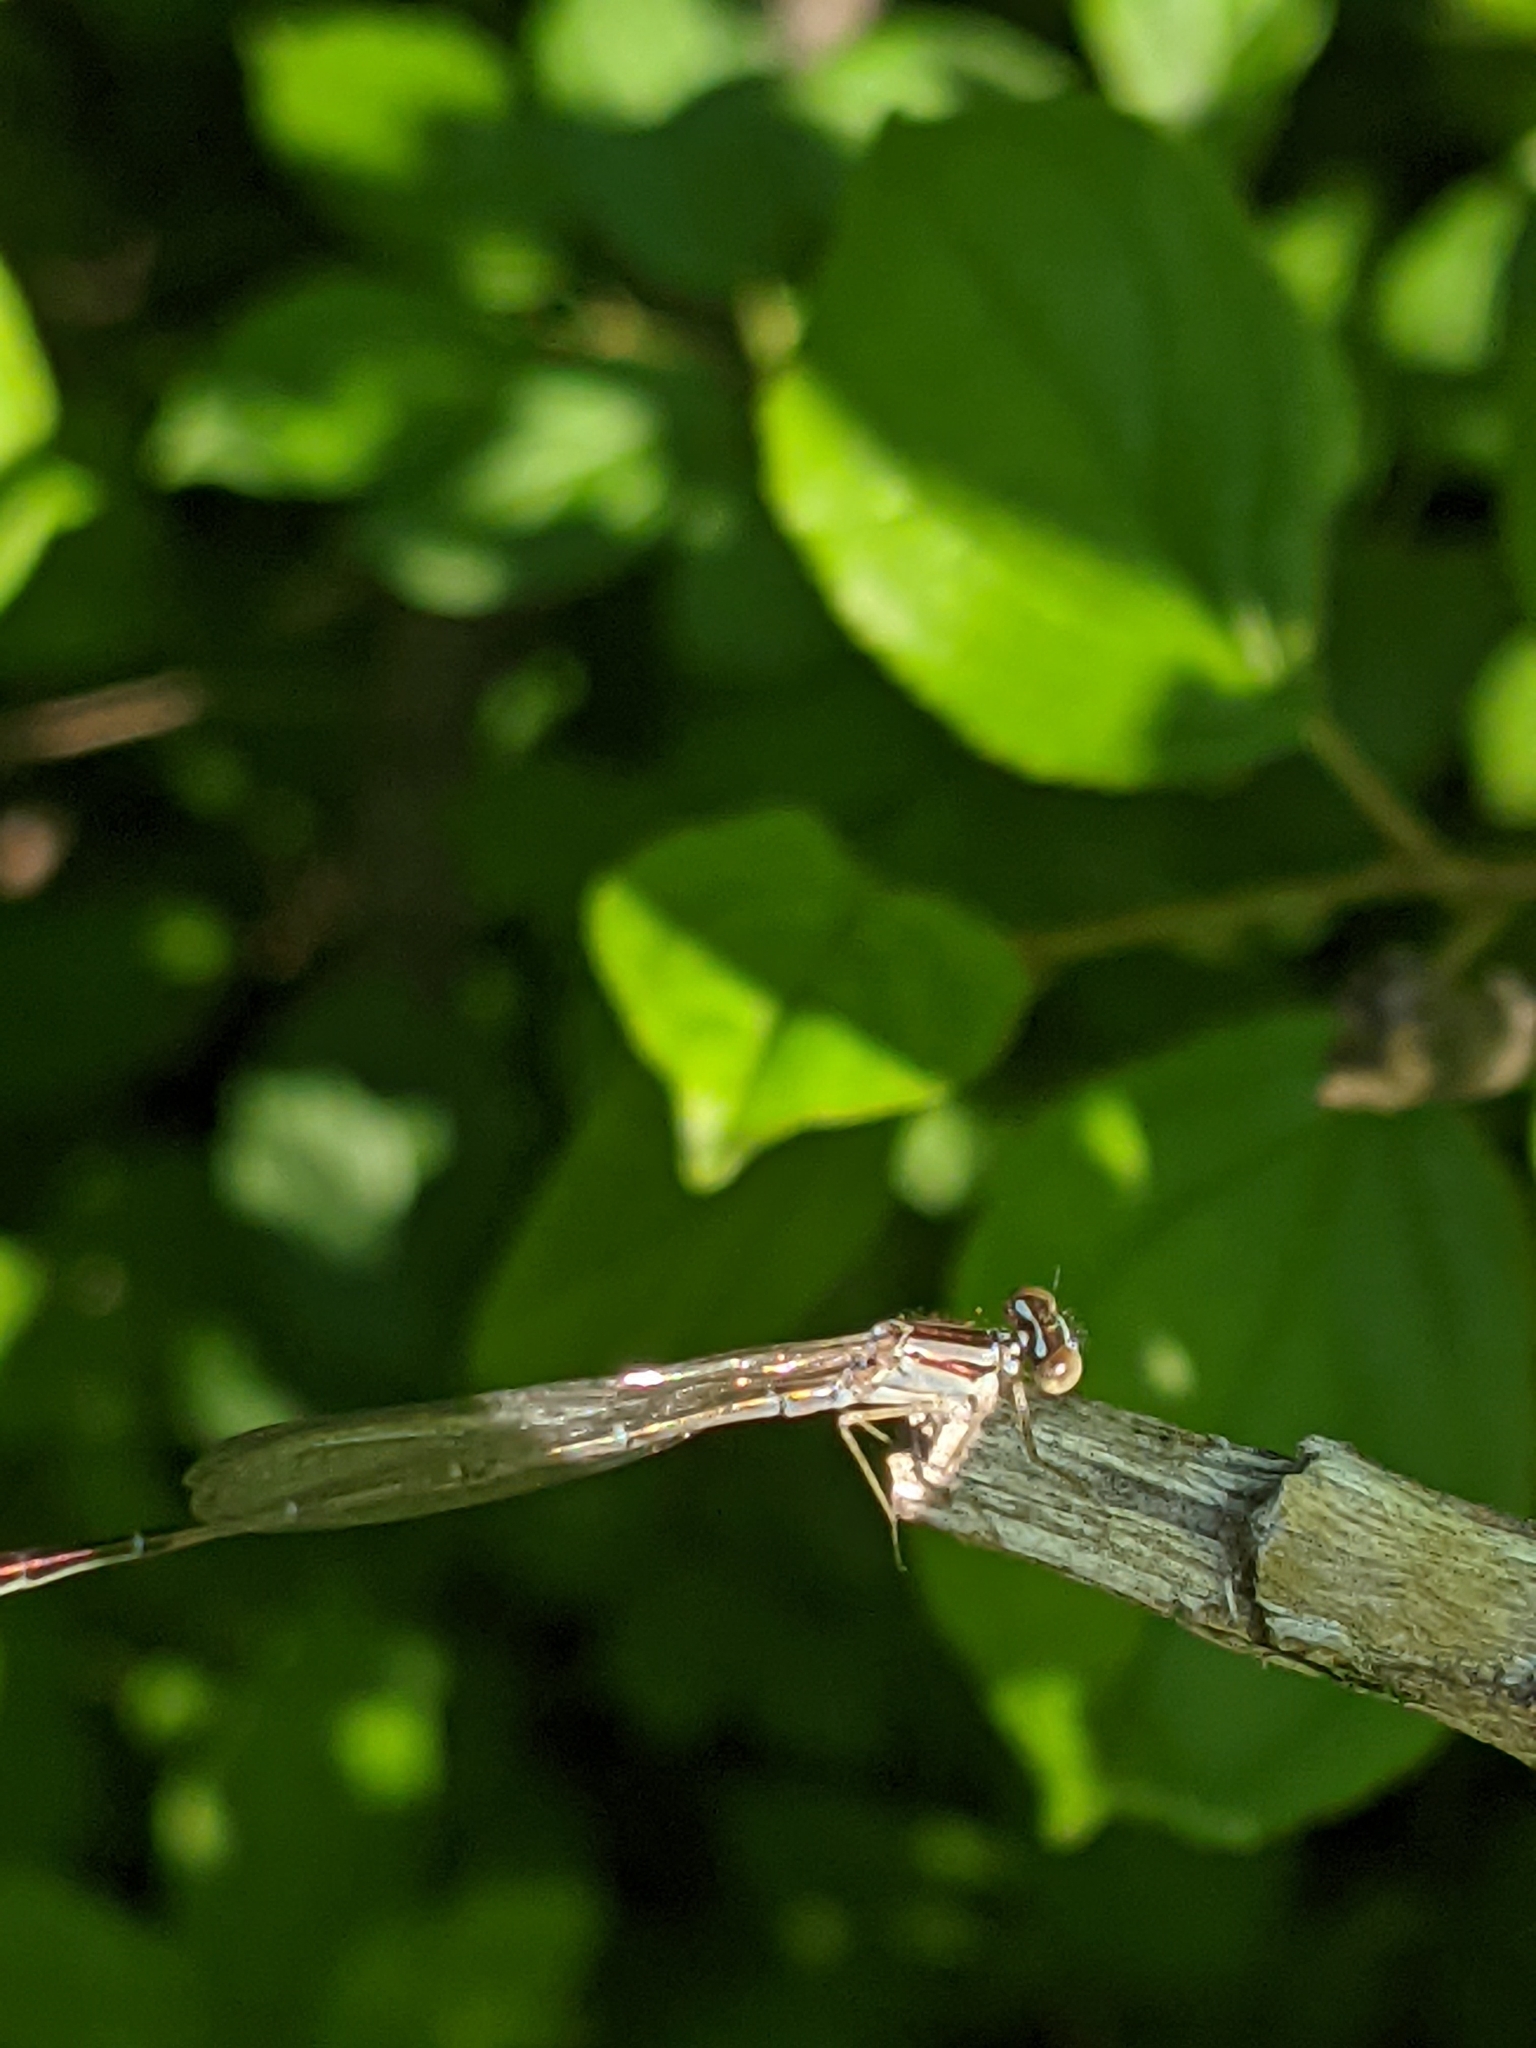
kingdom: Animalia
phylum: Arthropoda
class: Insecta
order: Odonata
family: Coenagrionidae
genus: Enallagma
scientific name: Enallagma signatum
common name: Orange bluet
